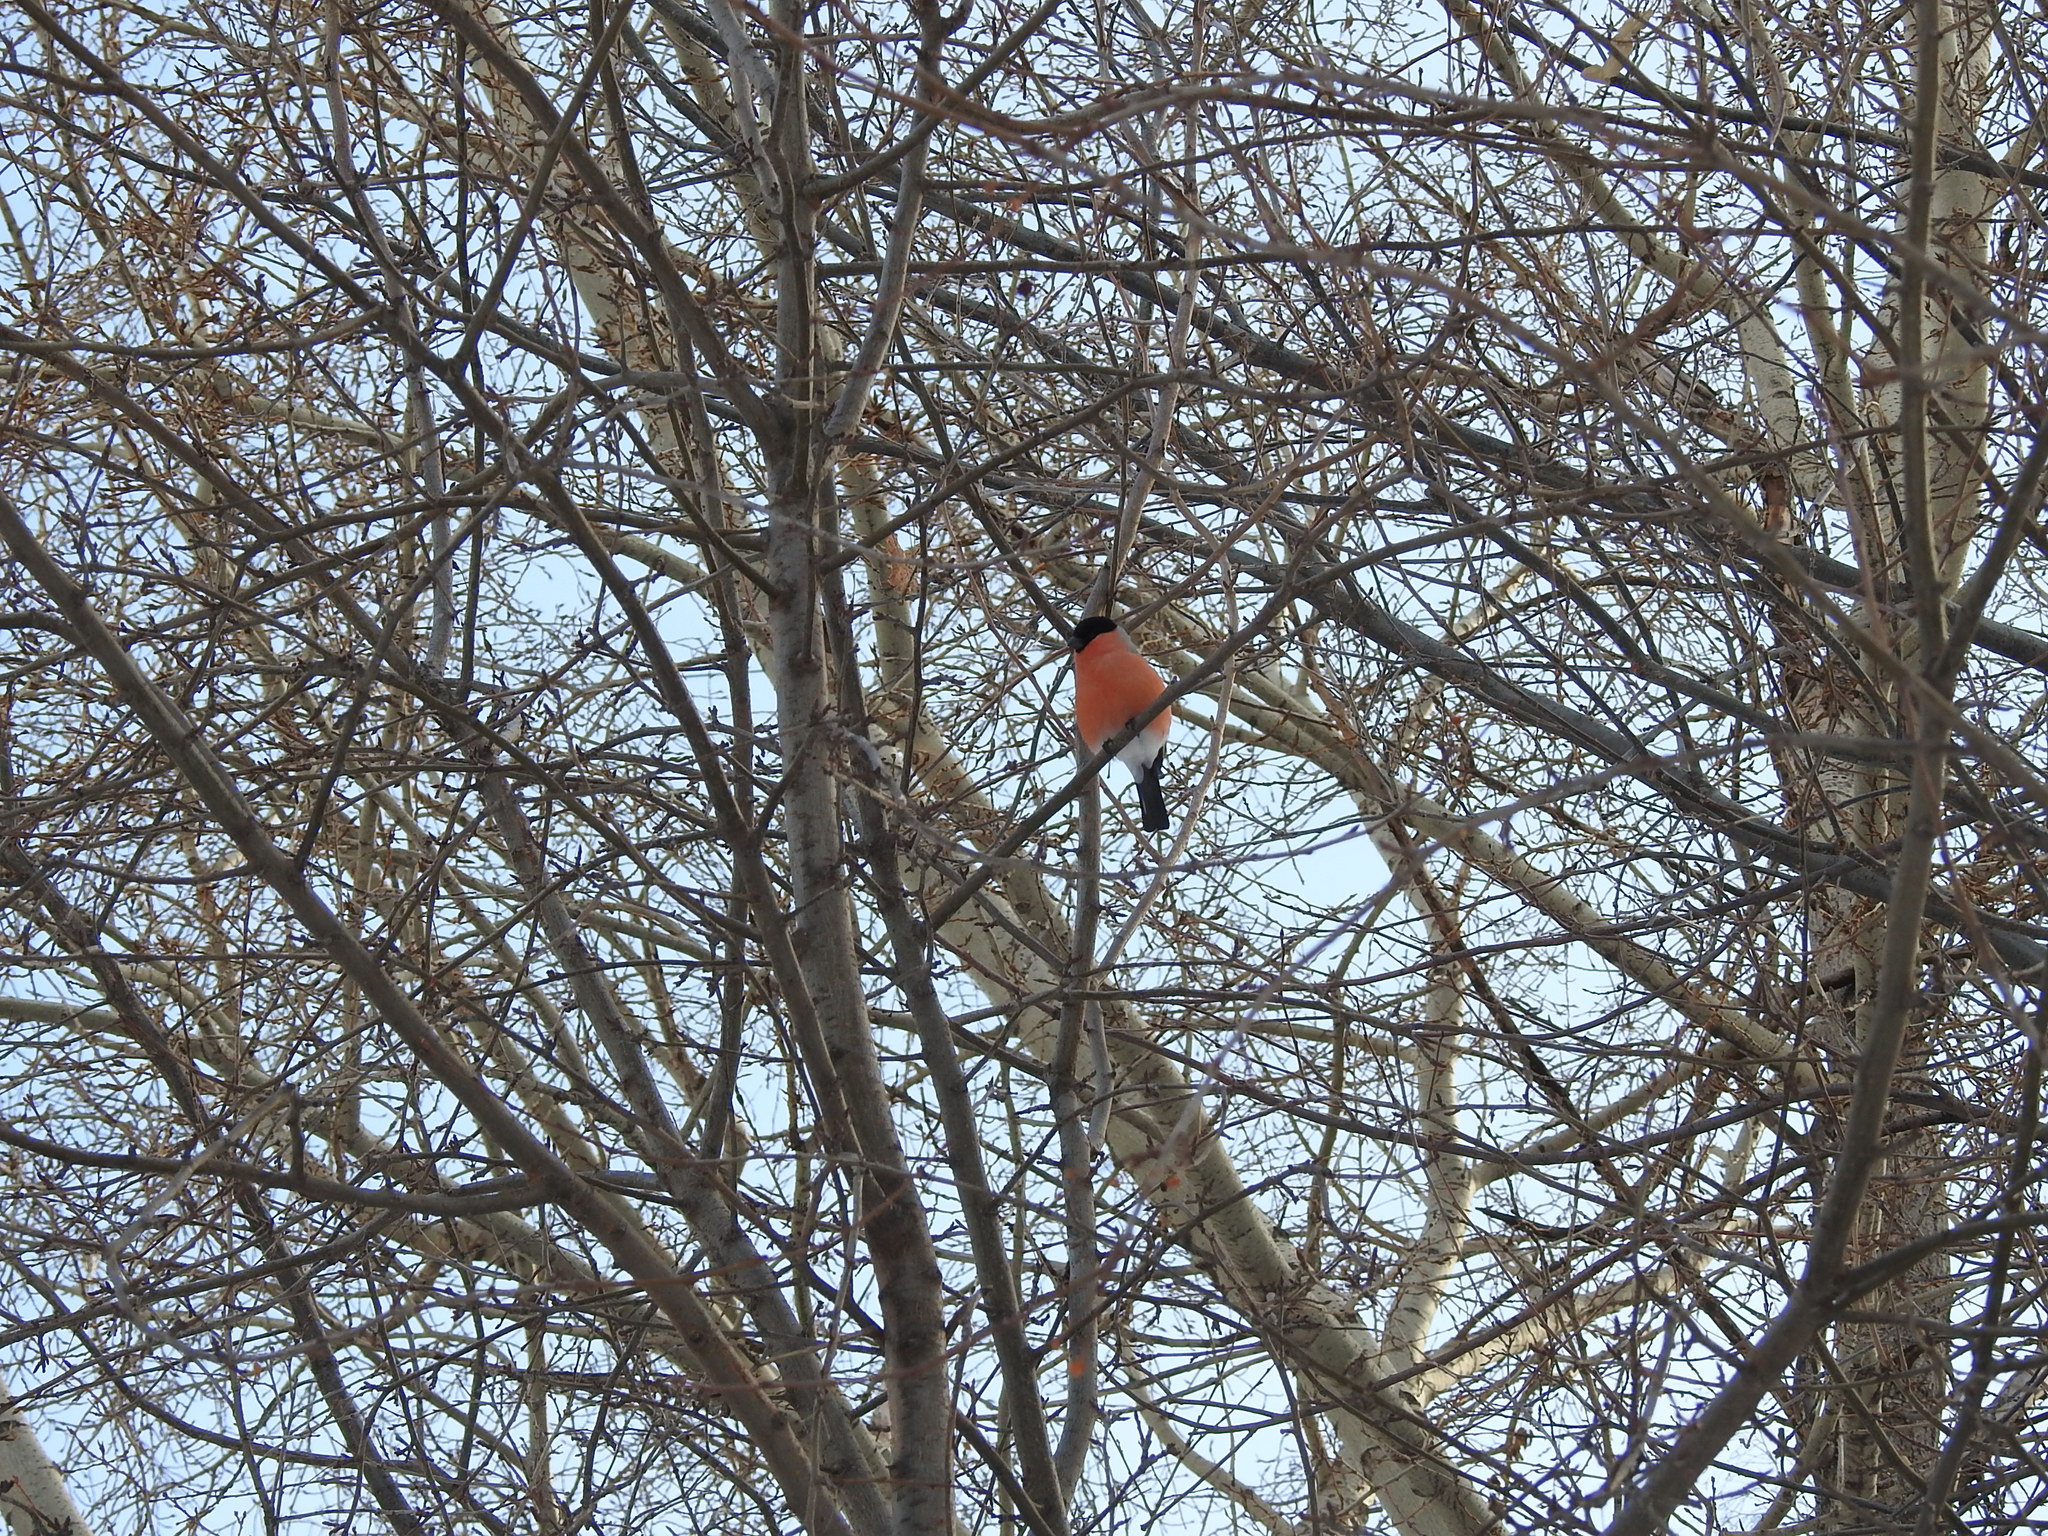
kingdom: Animalia
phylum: Chordata
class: Aves
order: Passeriformes
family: Fringillidae
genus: Pyrrhula
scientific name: Pyrrhula pyrrhula
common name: Eurasian bullfinch
